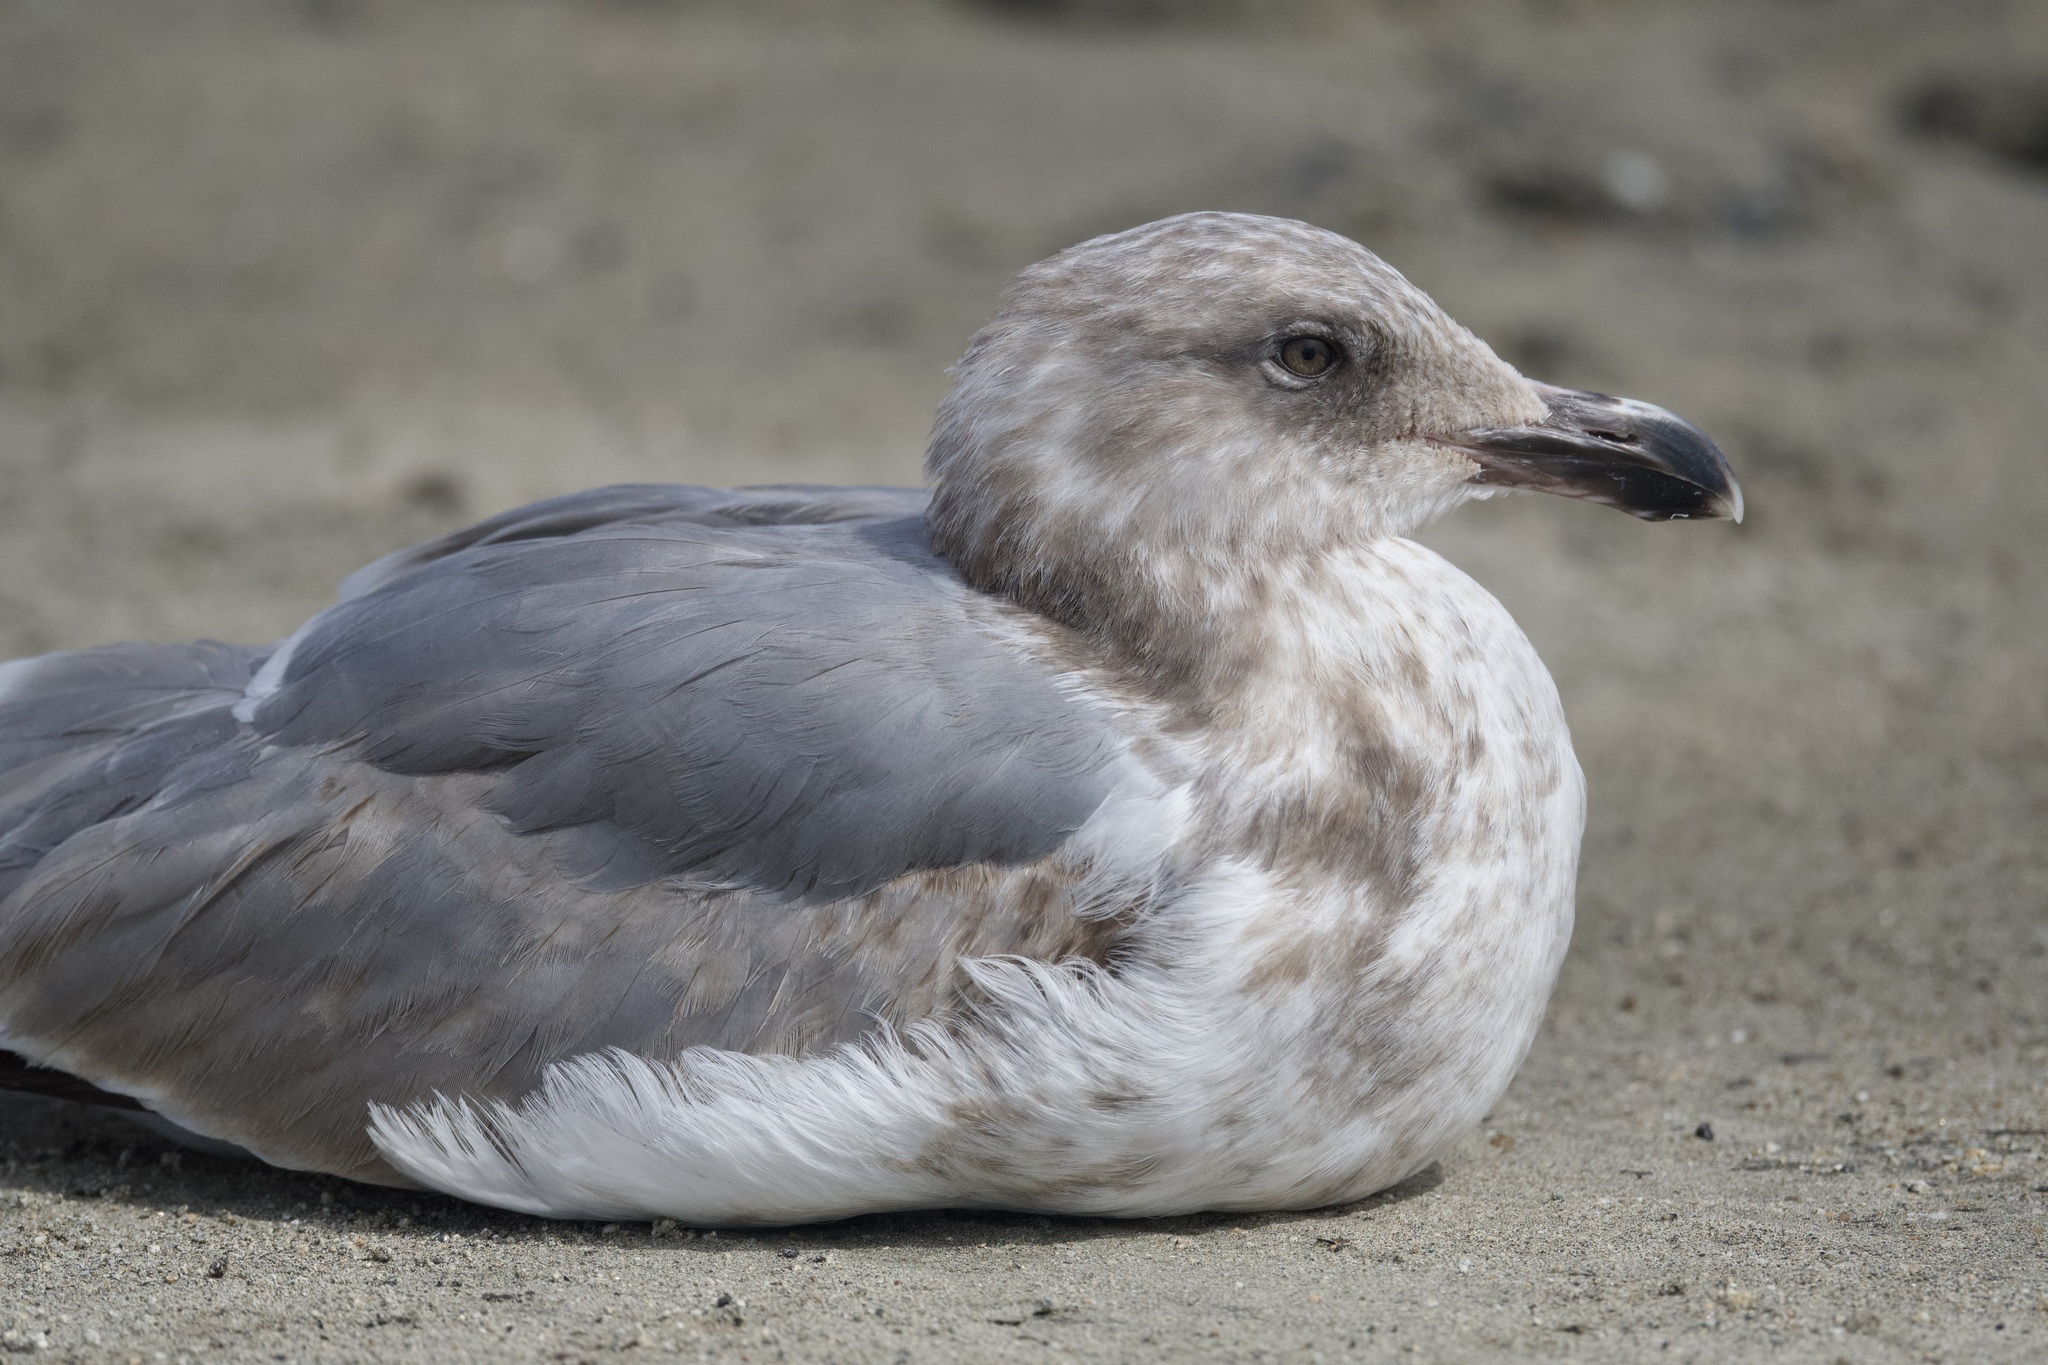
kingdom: Animalia
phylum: Chordata
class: Aves
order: Charadriiformes
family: Laridae
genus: Larus
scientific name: Larus occidentalis
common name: Western gull
